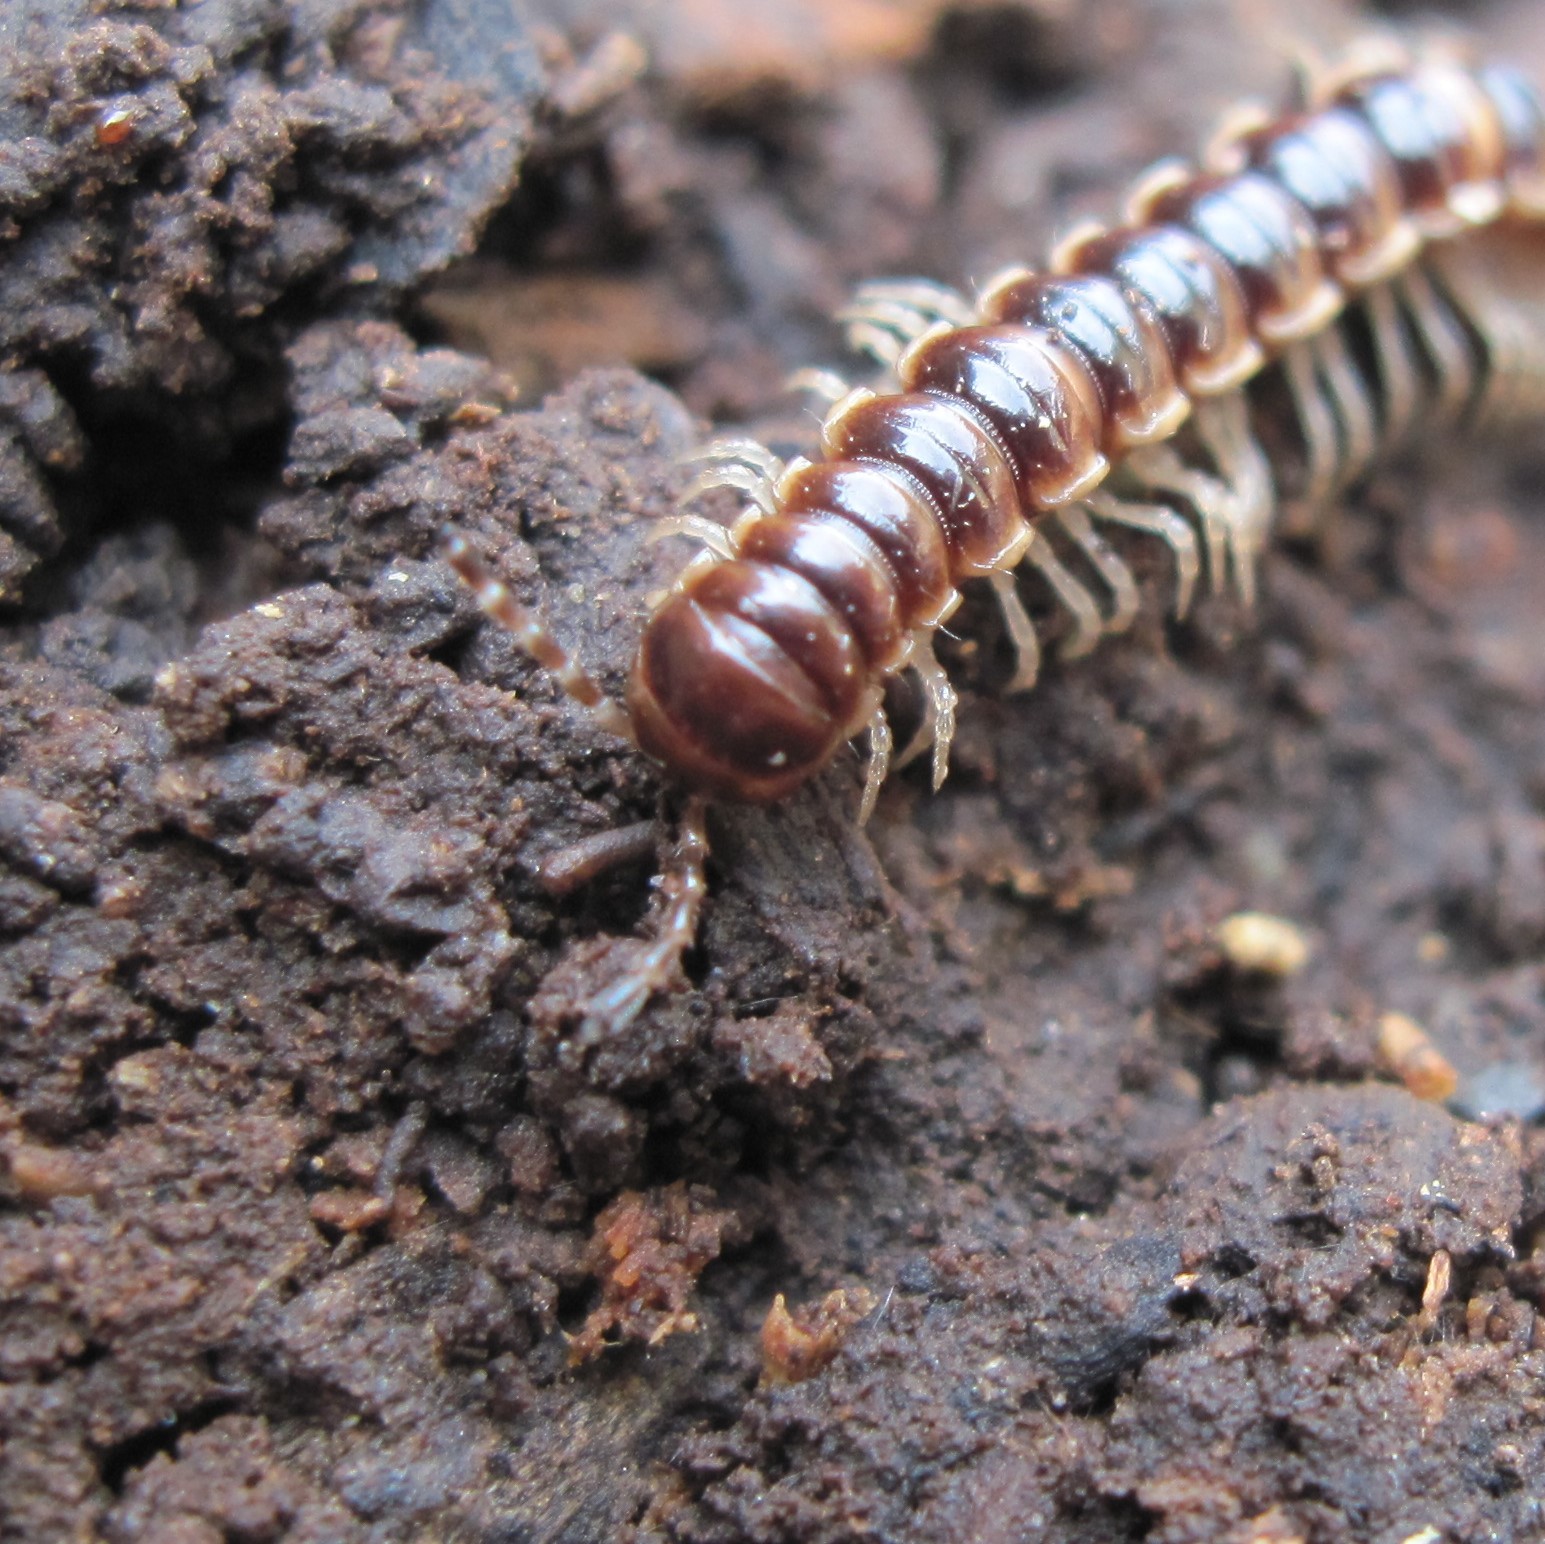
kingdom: Animalia
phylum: Arthropoda
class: Diplopoda
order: Polydesmida
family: Paradoxosomatidae
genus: Oxidus
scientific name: Oxidus gracilis
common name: Greenhouse millipede
